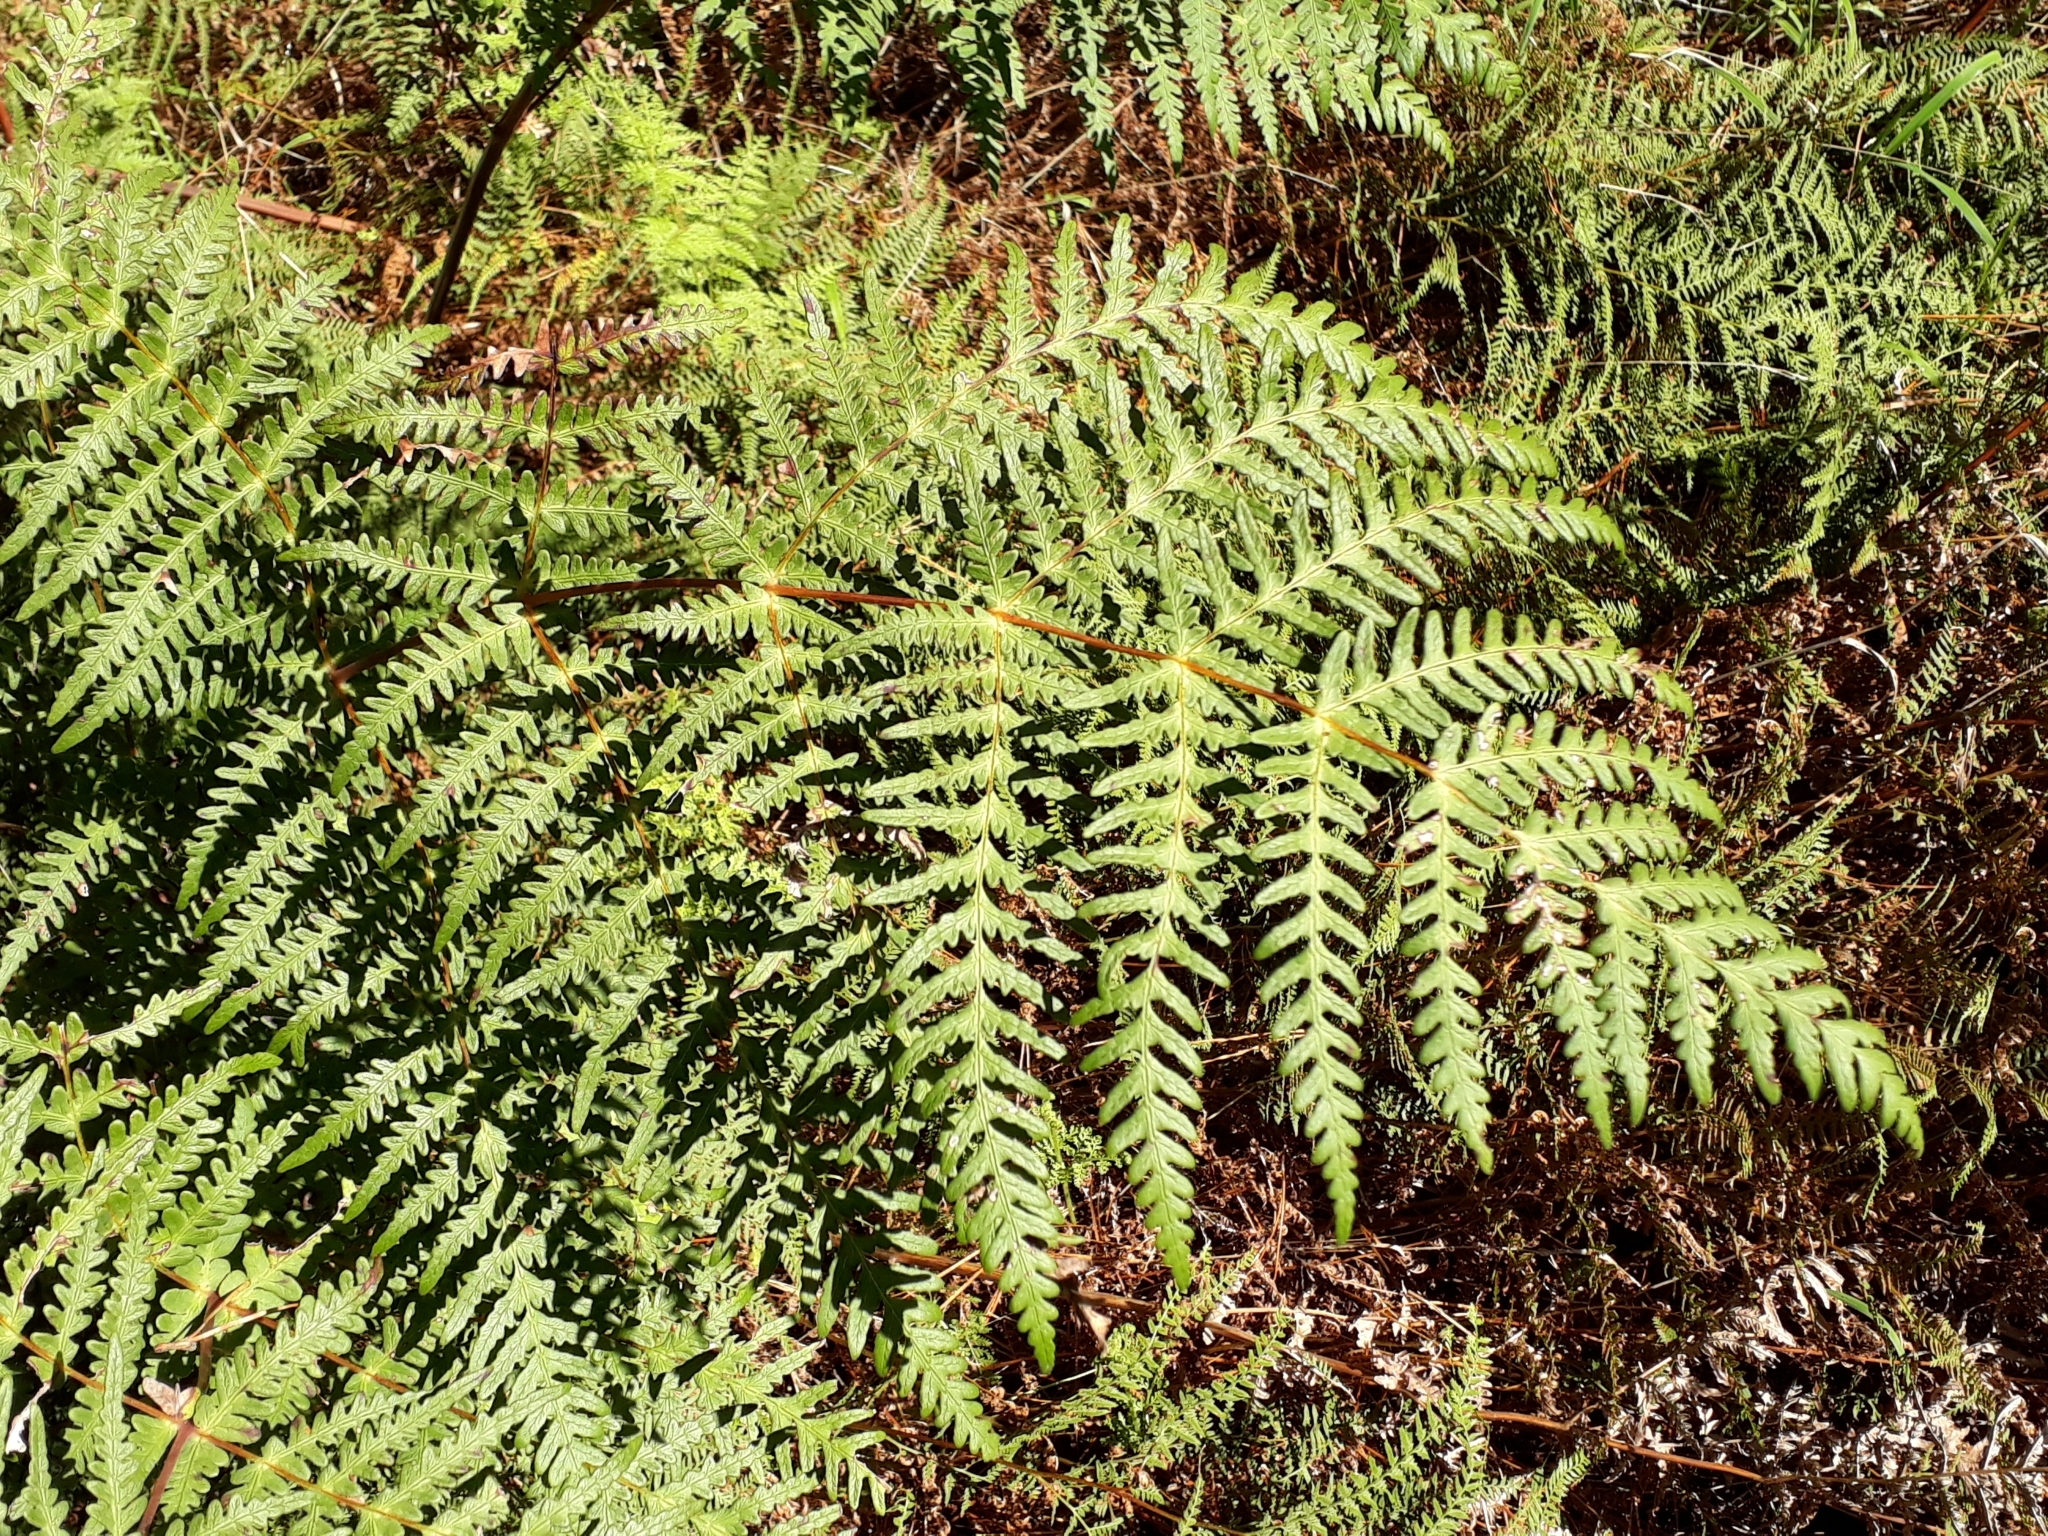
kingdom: Plantae
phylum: Tracheophyta
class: Polypodiopsida
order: Polypodiales
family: Dennstaedtiaceae
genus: Histiopteris
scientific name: Histiopteris incisa
